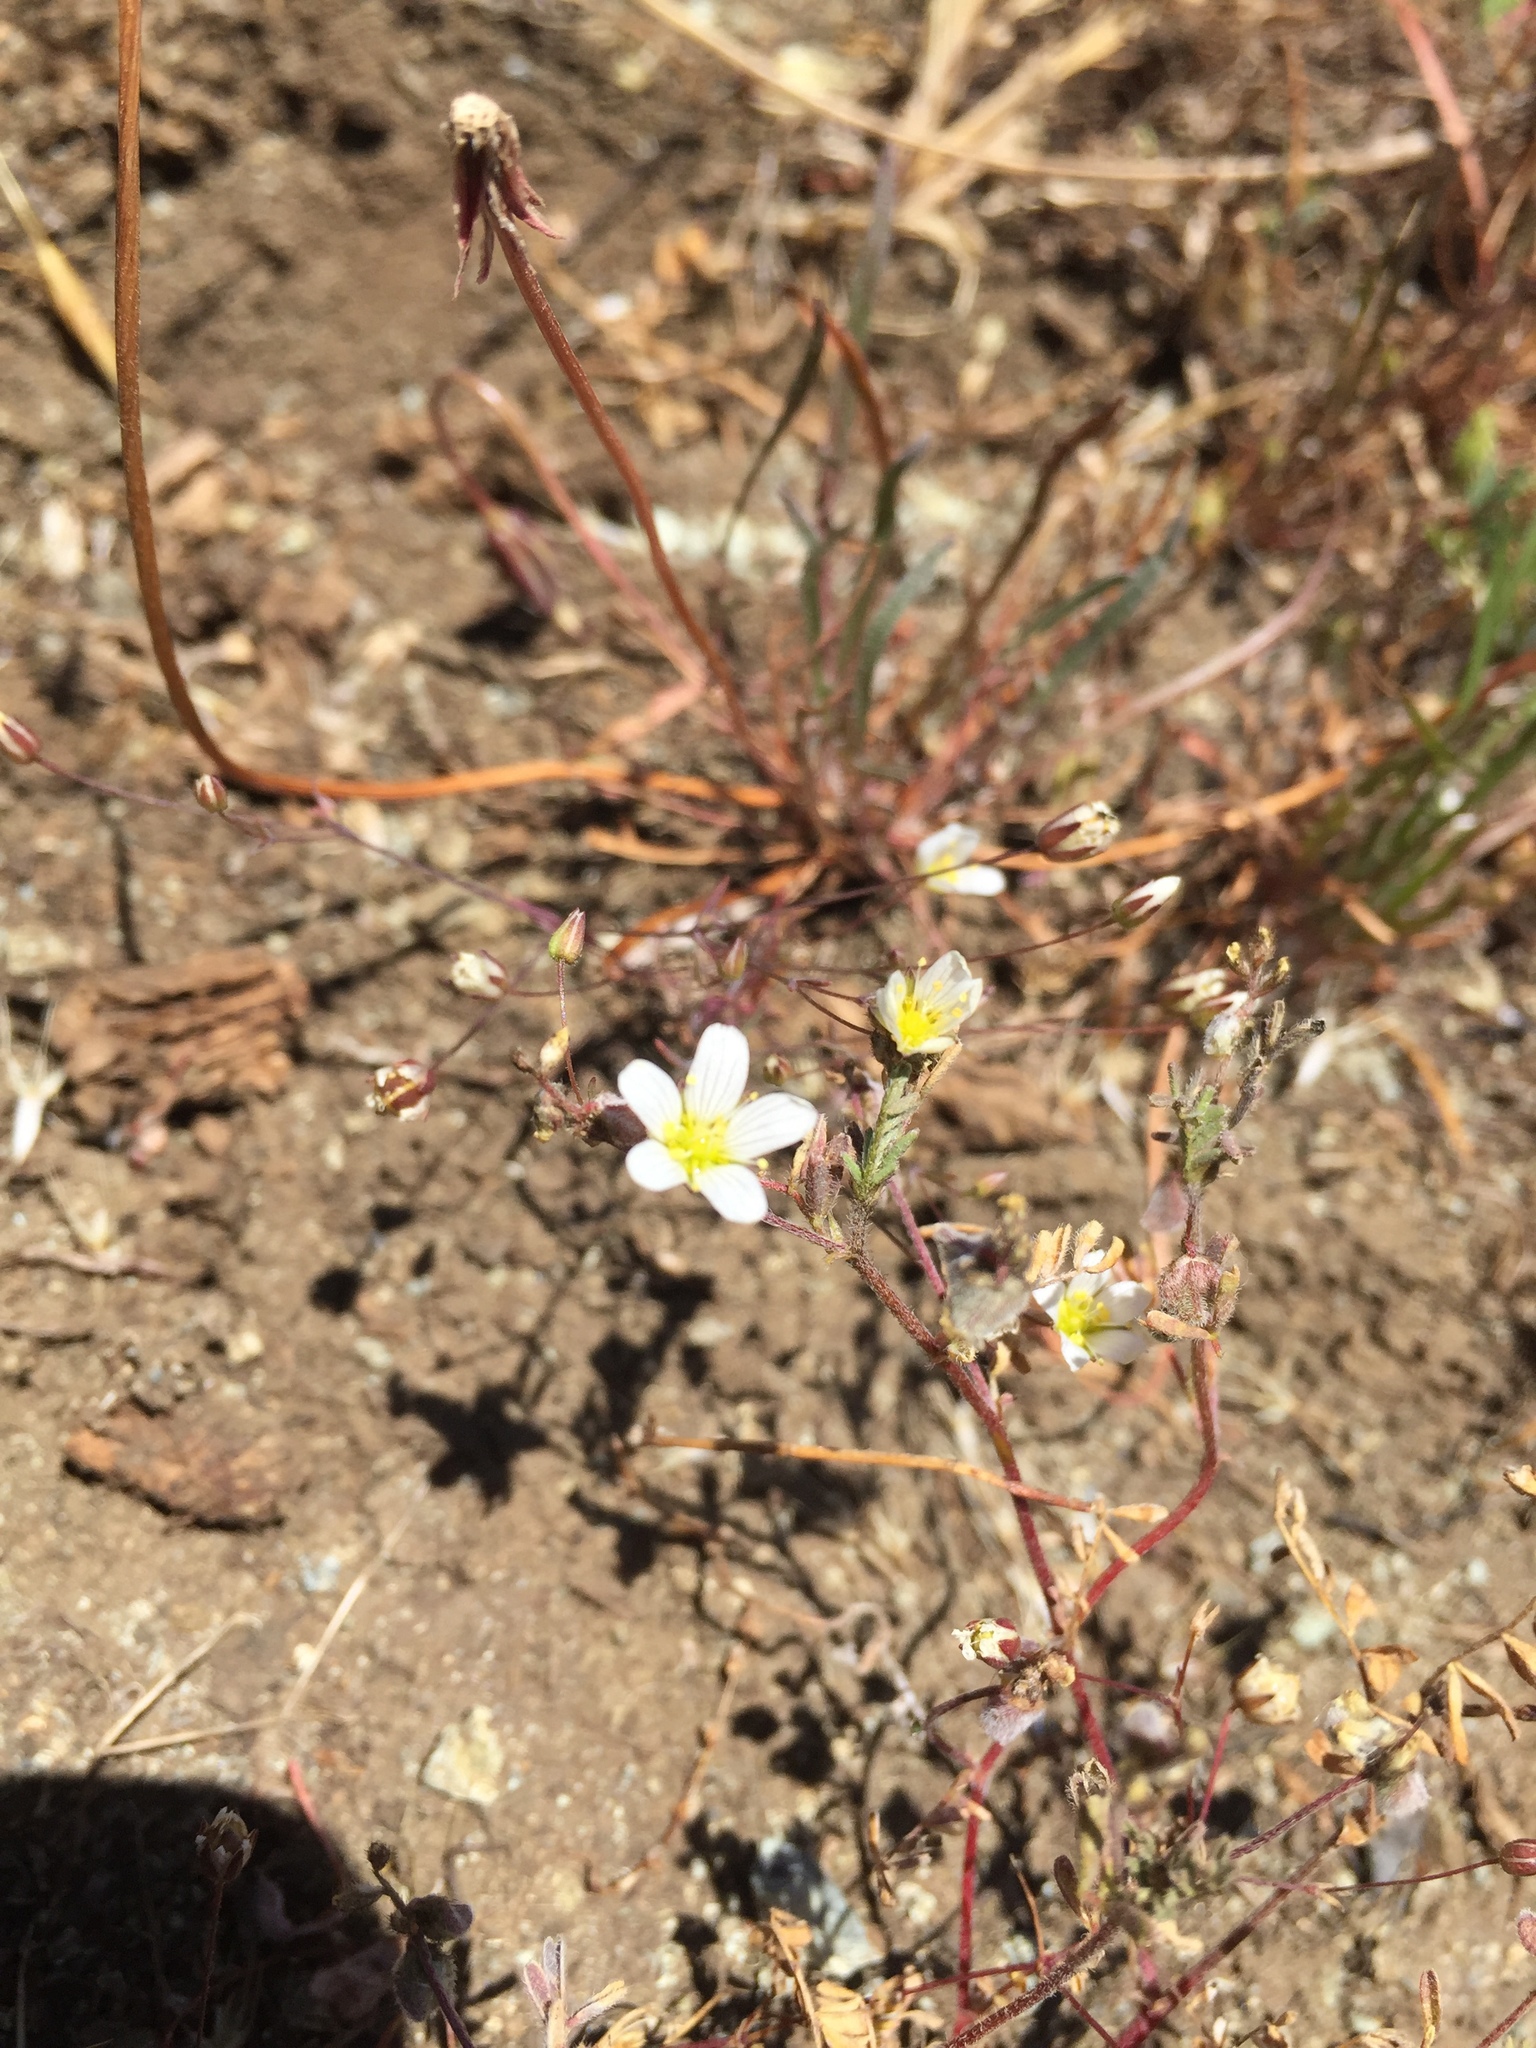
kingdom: Plantae
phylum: Tracheophyta
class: Magnoliopsida
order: Caryophyllales
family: Caryophyllaceae
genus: Sabulina
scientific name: Sabulina douglasii
